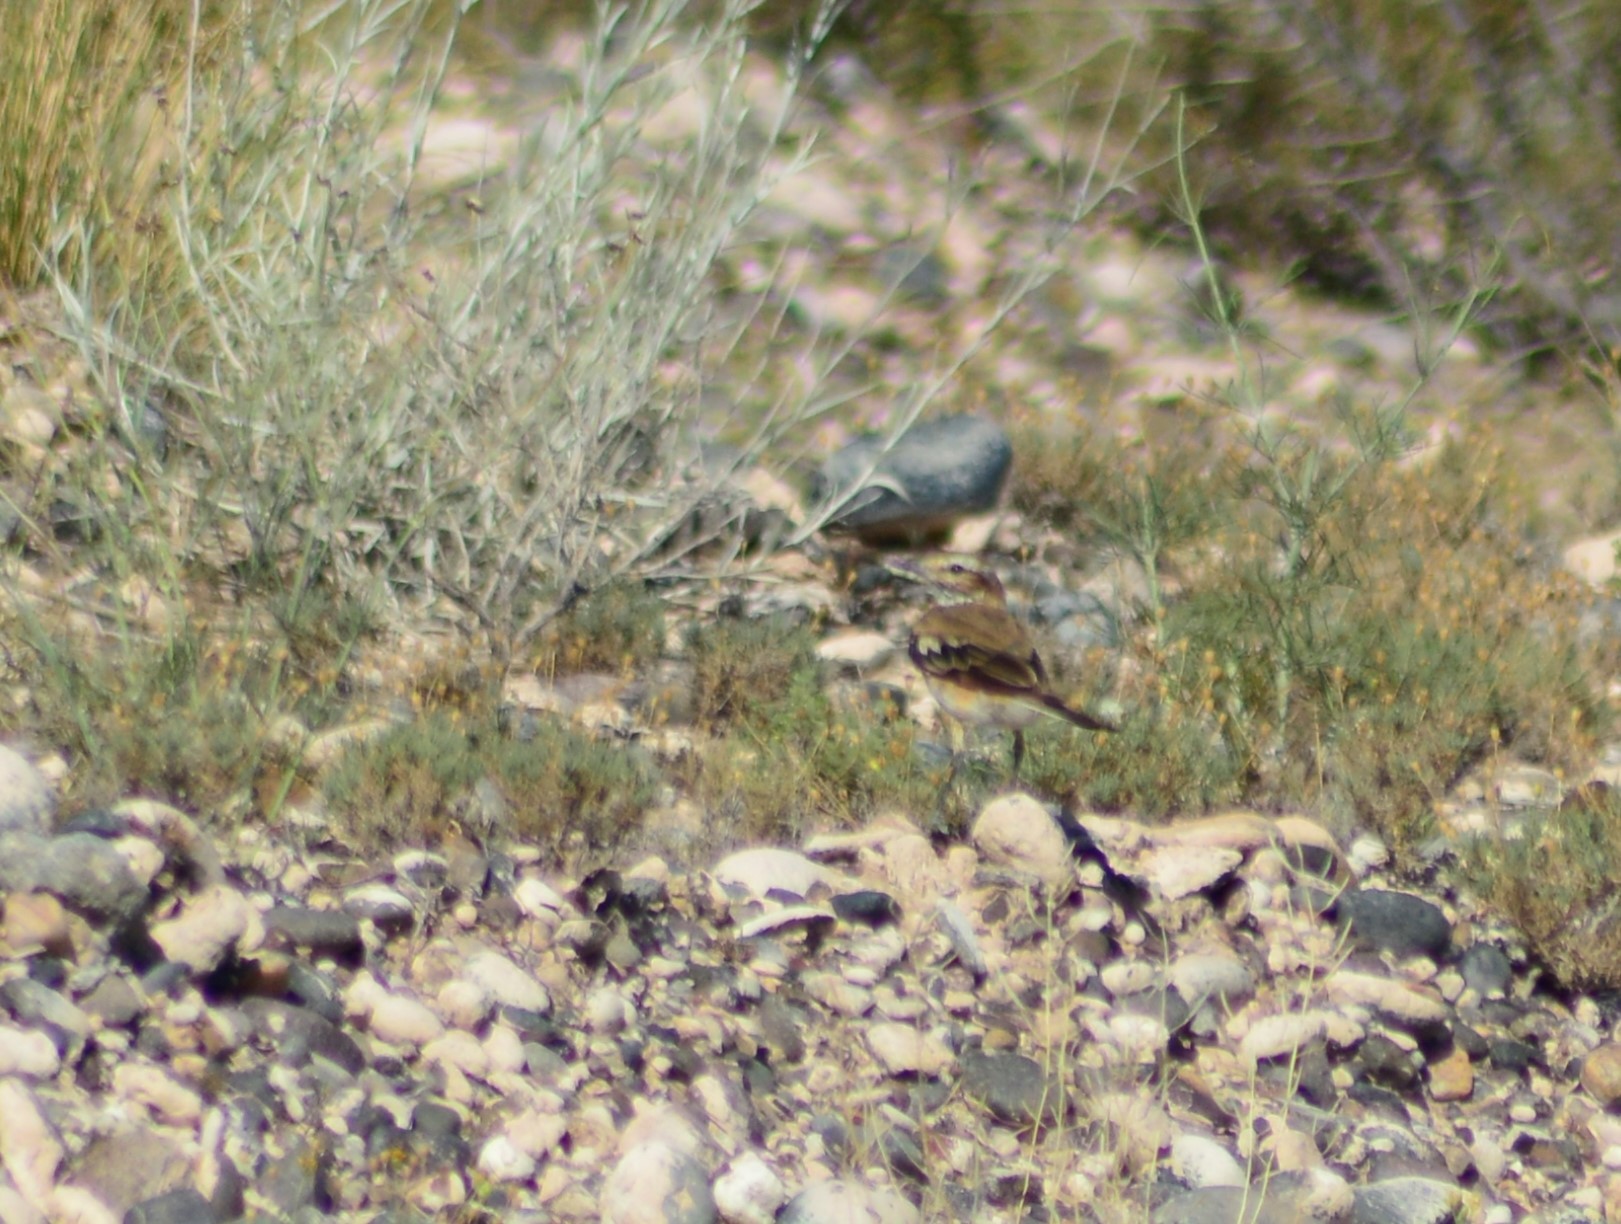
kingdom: Animalia
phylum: Chordata
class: Aves
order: Passeriformes
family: Tyrannidae
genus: Xolmis
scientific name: Xolmis rubetra
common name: Rusty-backed monjita
